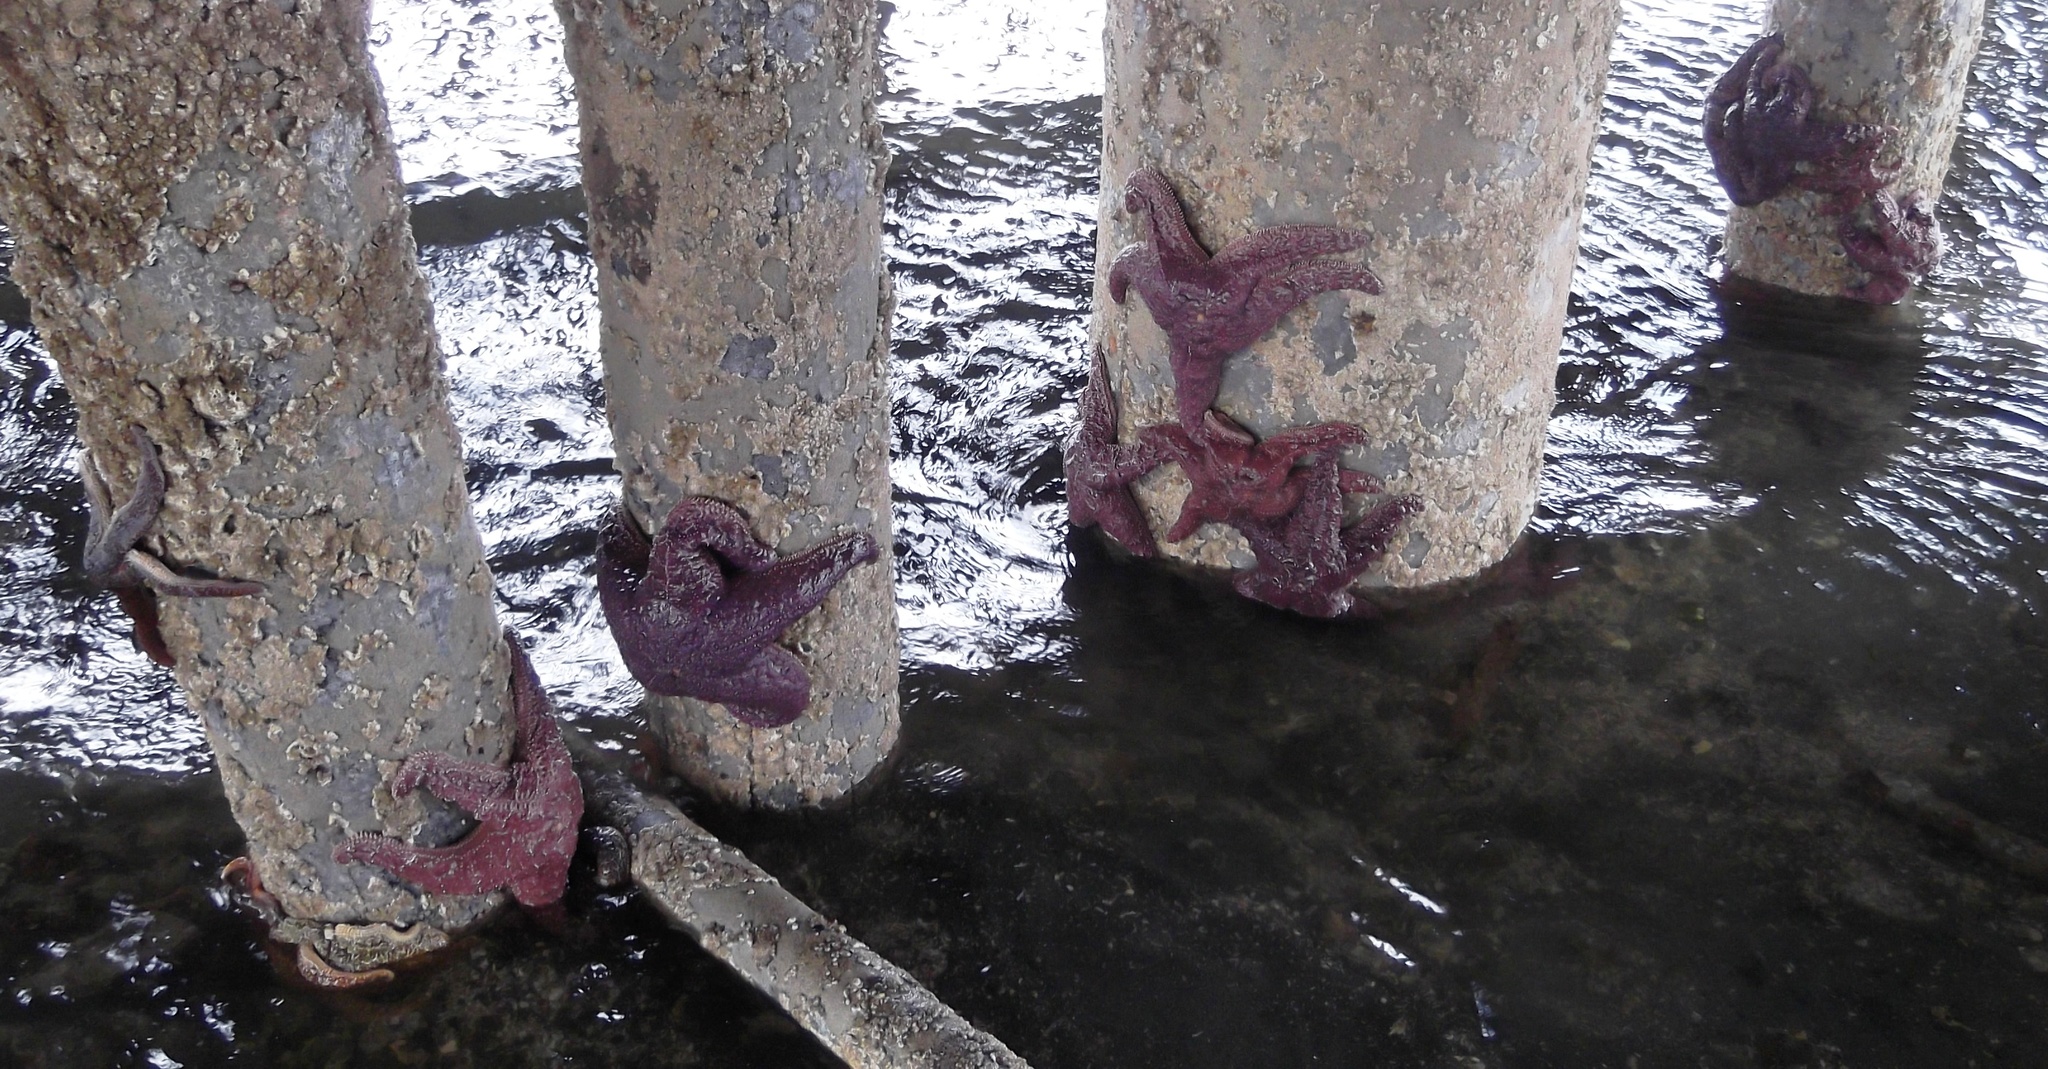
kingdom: Animalia
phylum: Echinodermata
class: Asteroidea
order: Forcipulatida
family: Asteriidae
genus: Pisaster
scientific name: Pisaster ochraceus
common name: Ochre stars
